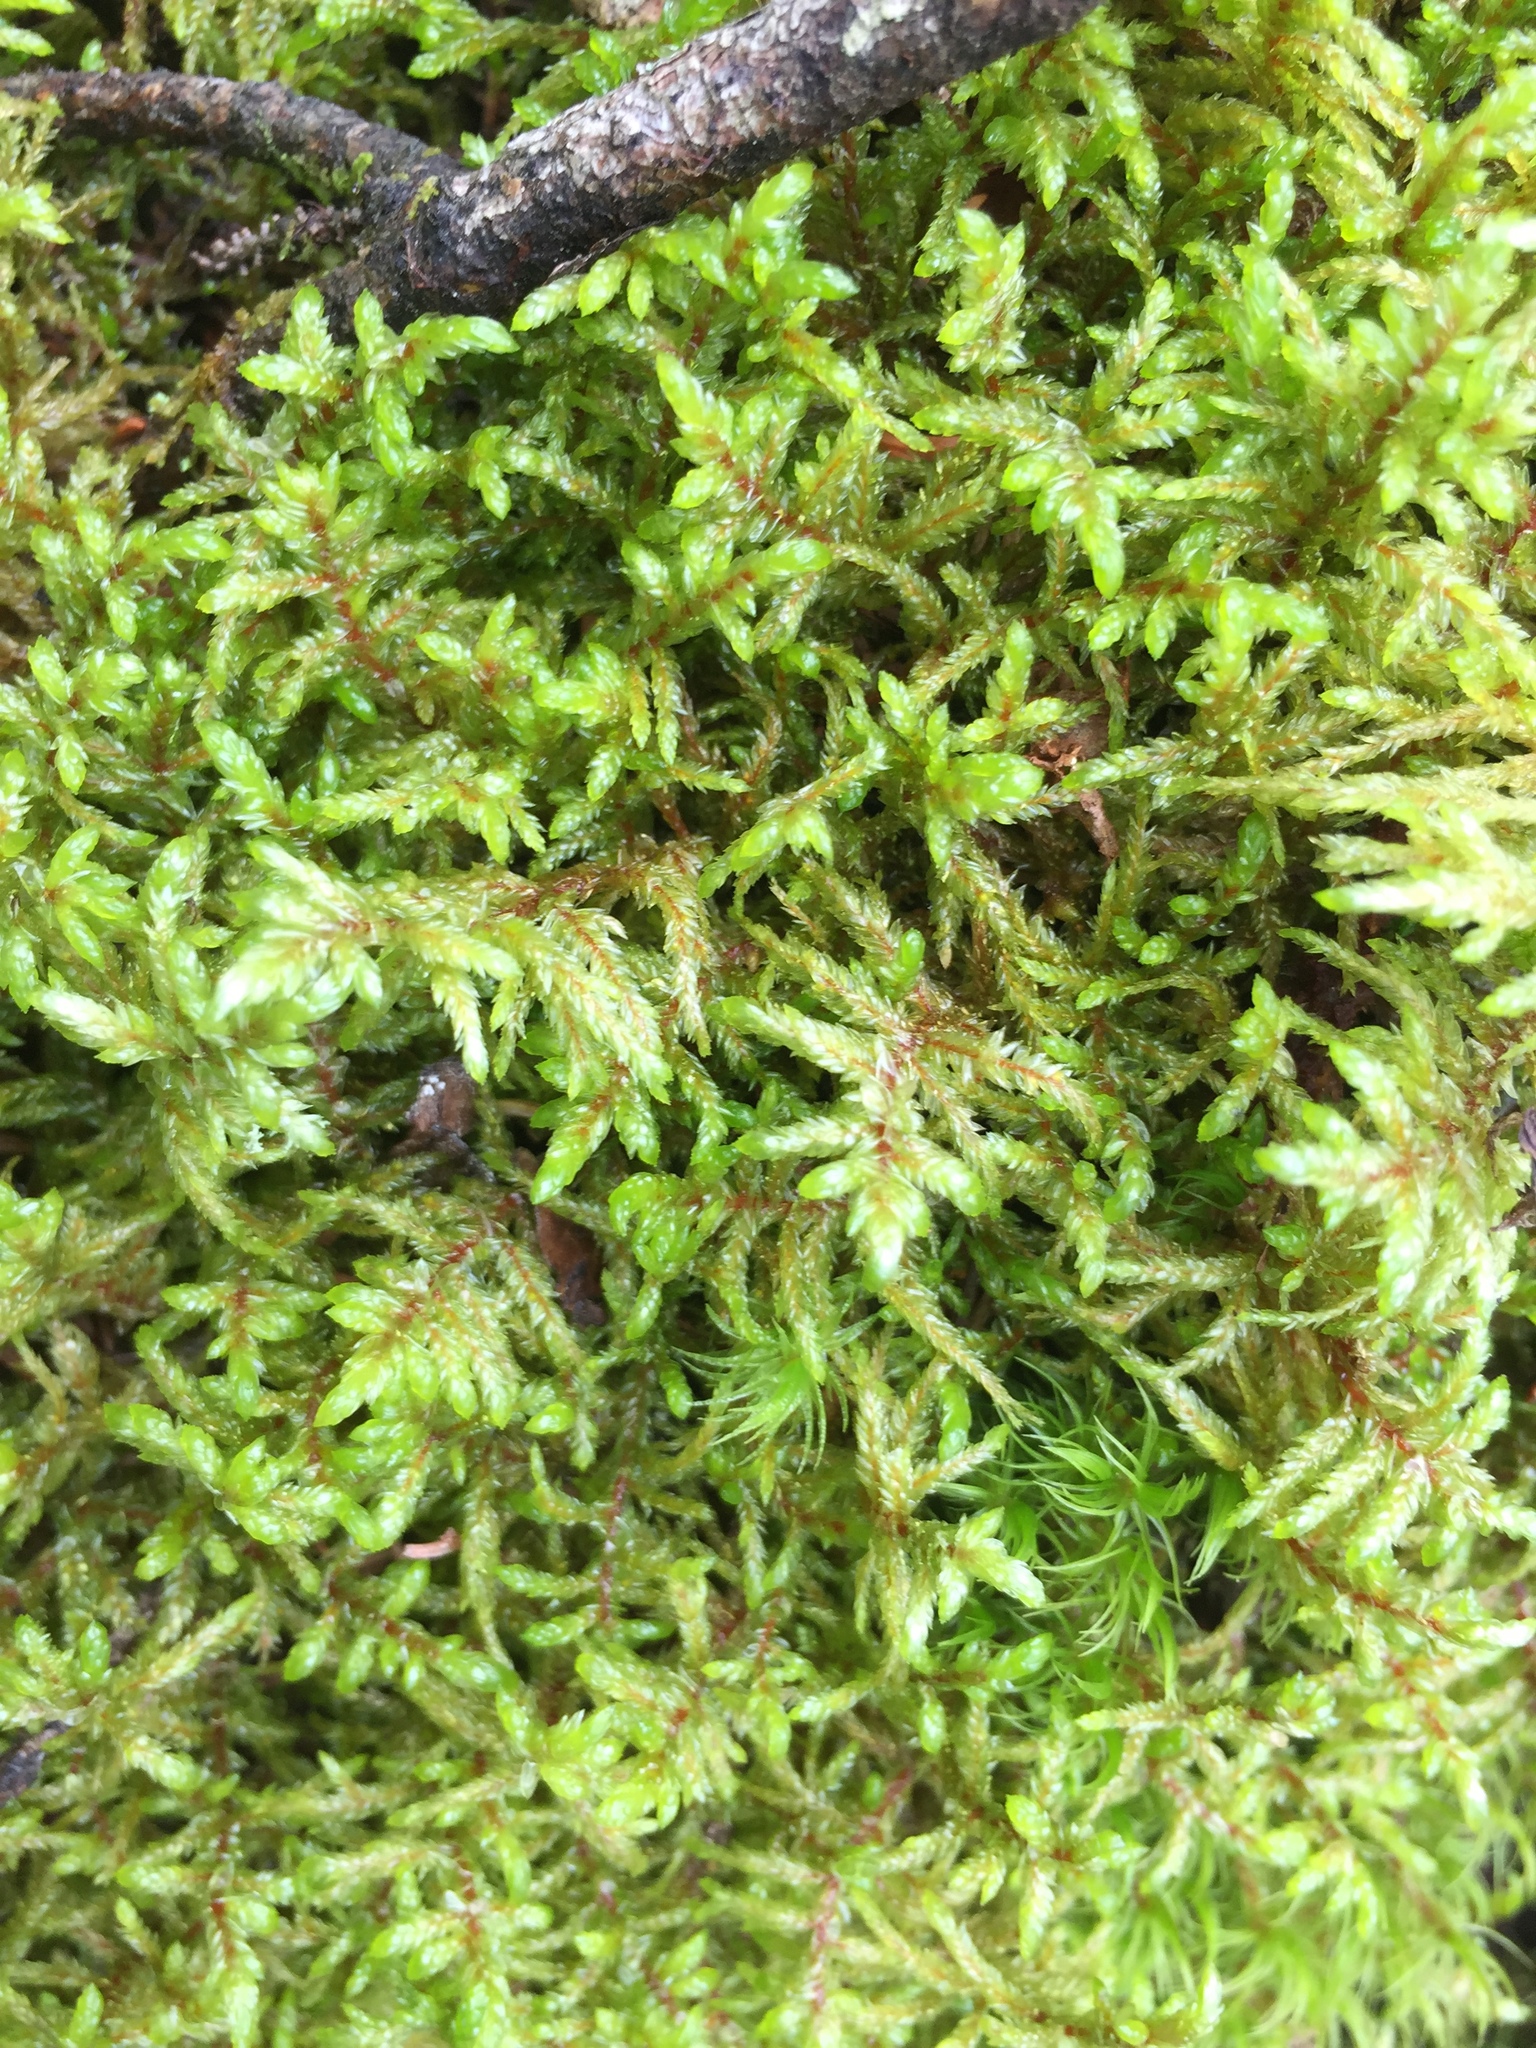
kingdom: Plantae
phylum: Bryophyta
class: Bryopsida
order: Hypnales
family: Hylocomiaceae
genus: Pleurozium
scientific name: Pleurozium schreberi
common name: Red-stemmed feather moss
